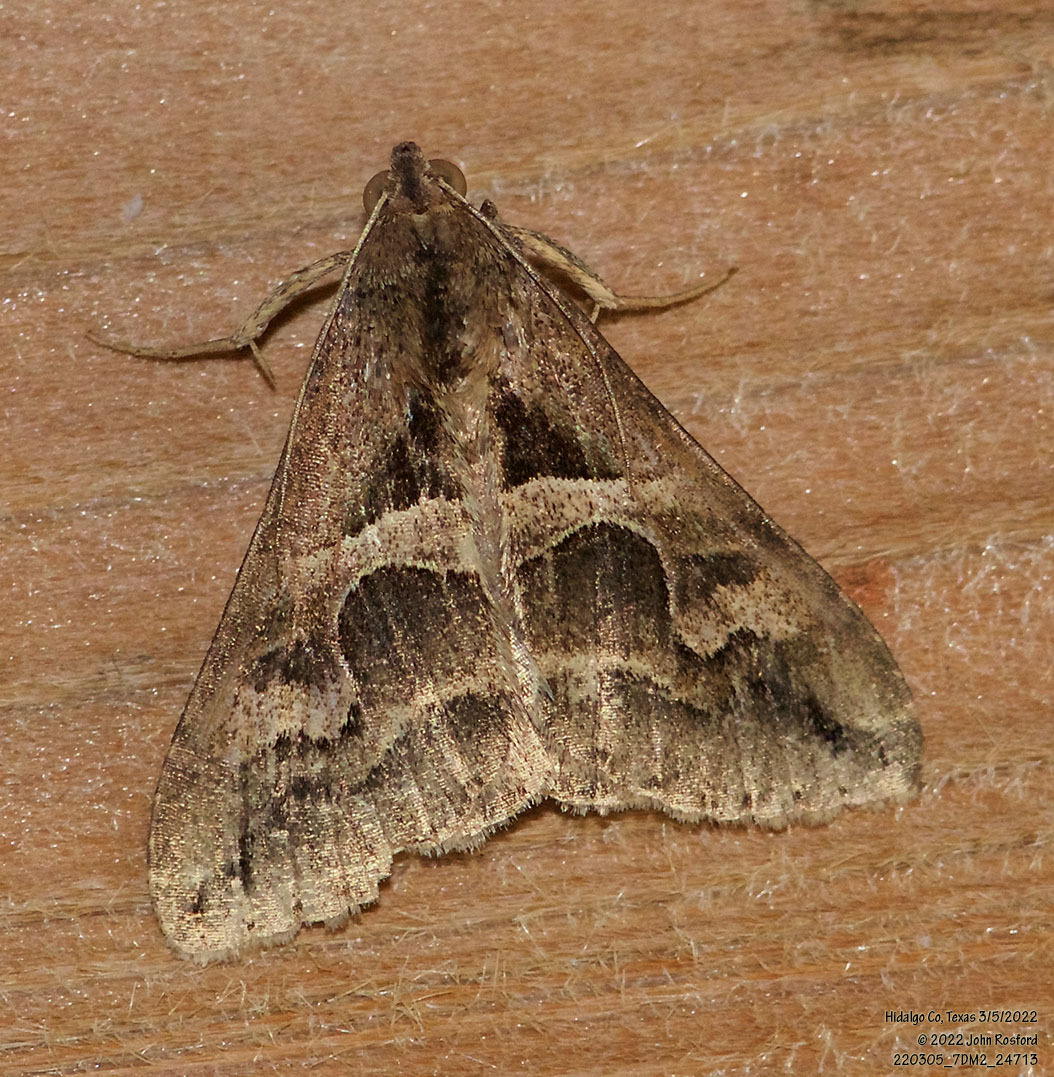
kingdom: Animalia
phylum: Arthropoda
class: Insecta
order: Lepidoptera
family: Erebidae
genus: Melipotis
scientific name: Melipotis cellaris
